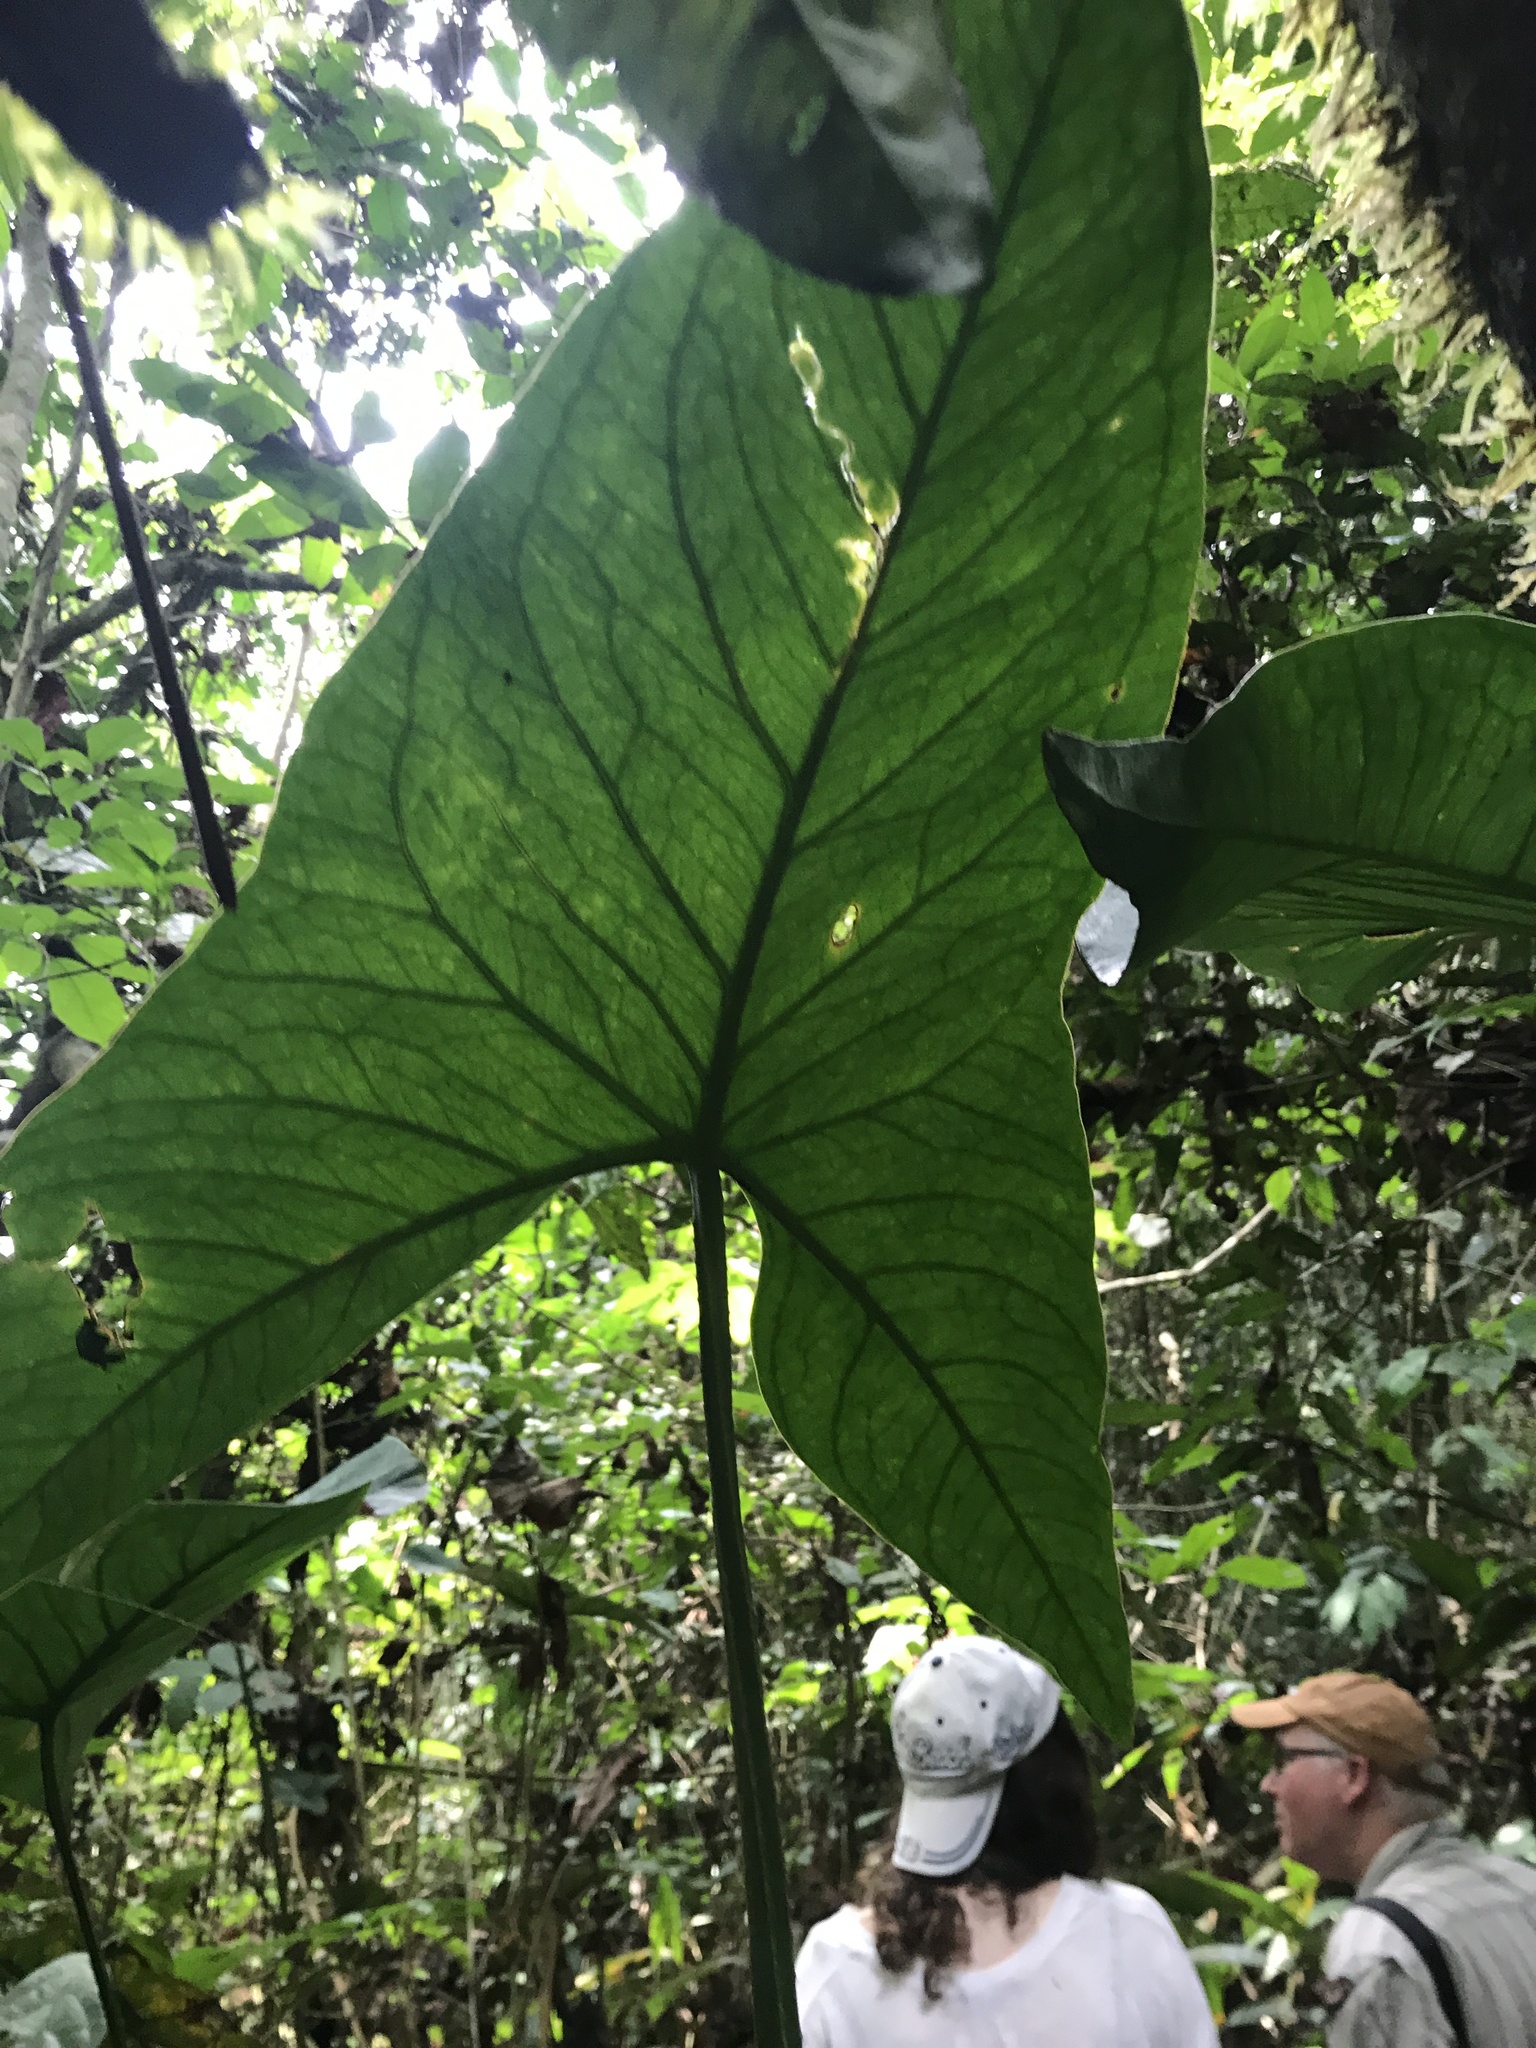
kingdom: Plantae
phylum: Tracheophyta
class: Liliopsida
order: Alismatales
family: Araceae
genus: Lasimorpha
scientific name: Lasimorpha senegalensis
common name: Swamp arum
